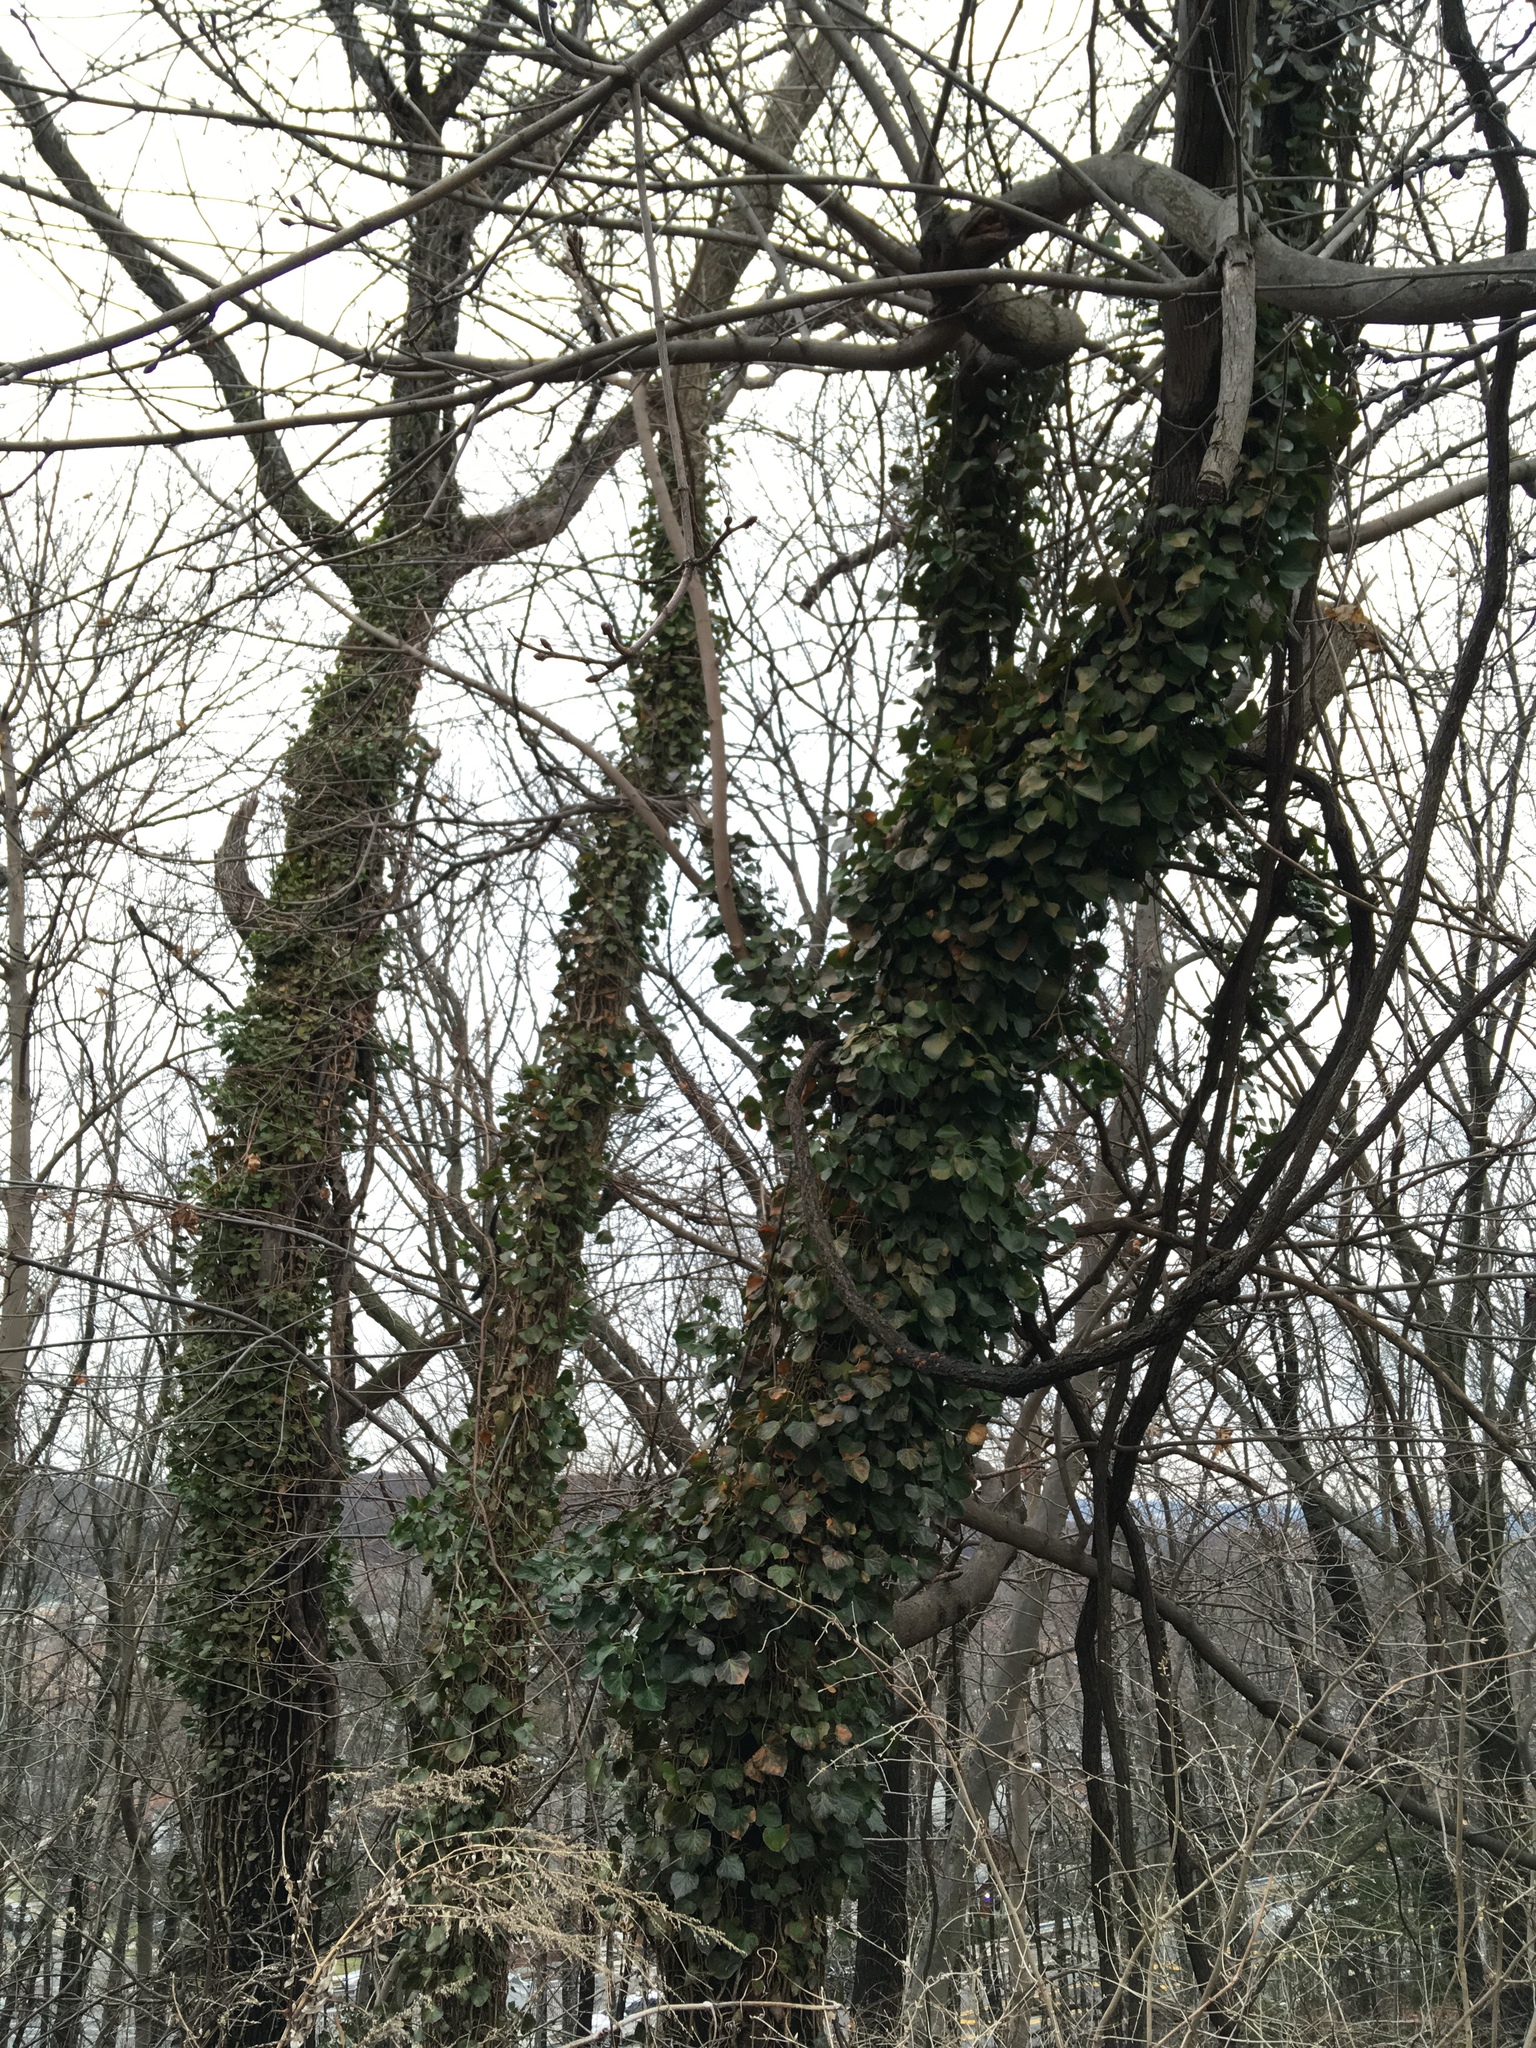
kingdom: Plantae
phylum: Tracheophyta
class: Magnoliopsida
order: Apiales
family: Araliaceae
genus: Hedera
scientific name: Hedera helix
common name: Ivy
